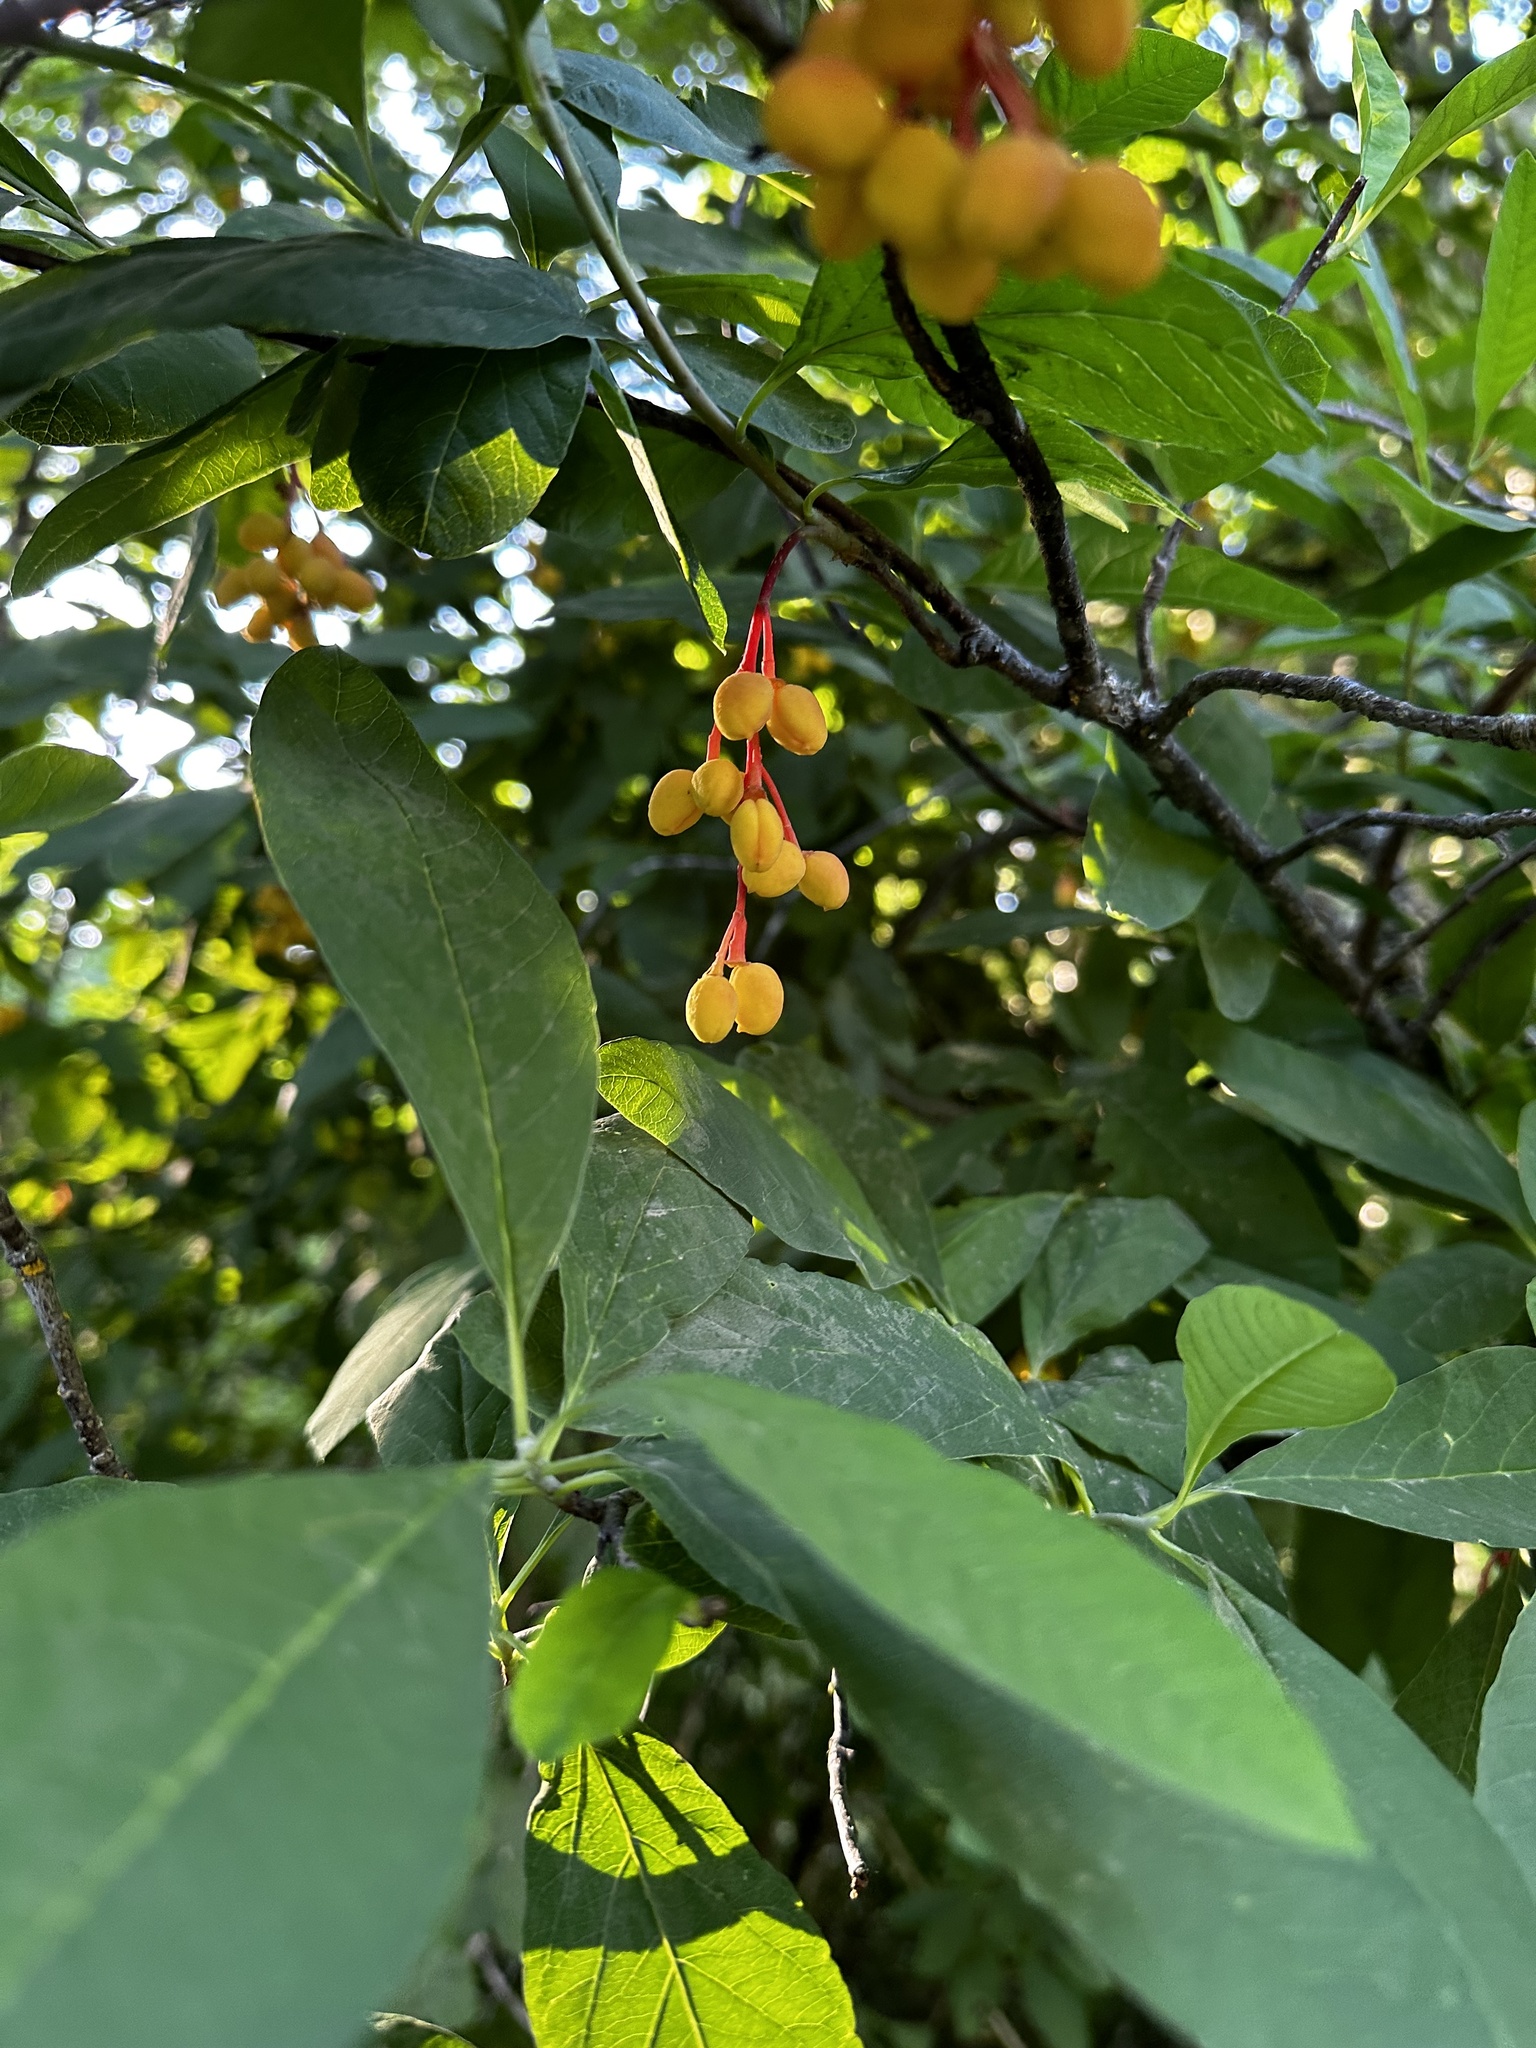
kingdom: Plantae
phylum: Tracheophyta
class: Magnoliopsida
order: Rosales
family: Rosaceae
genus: Oemleria
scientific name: Oemleria cerasiformis
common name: Osoberry
